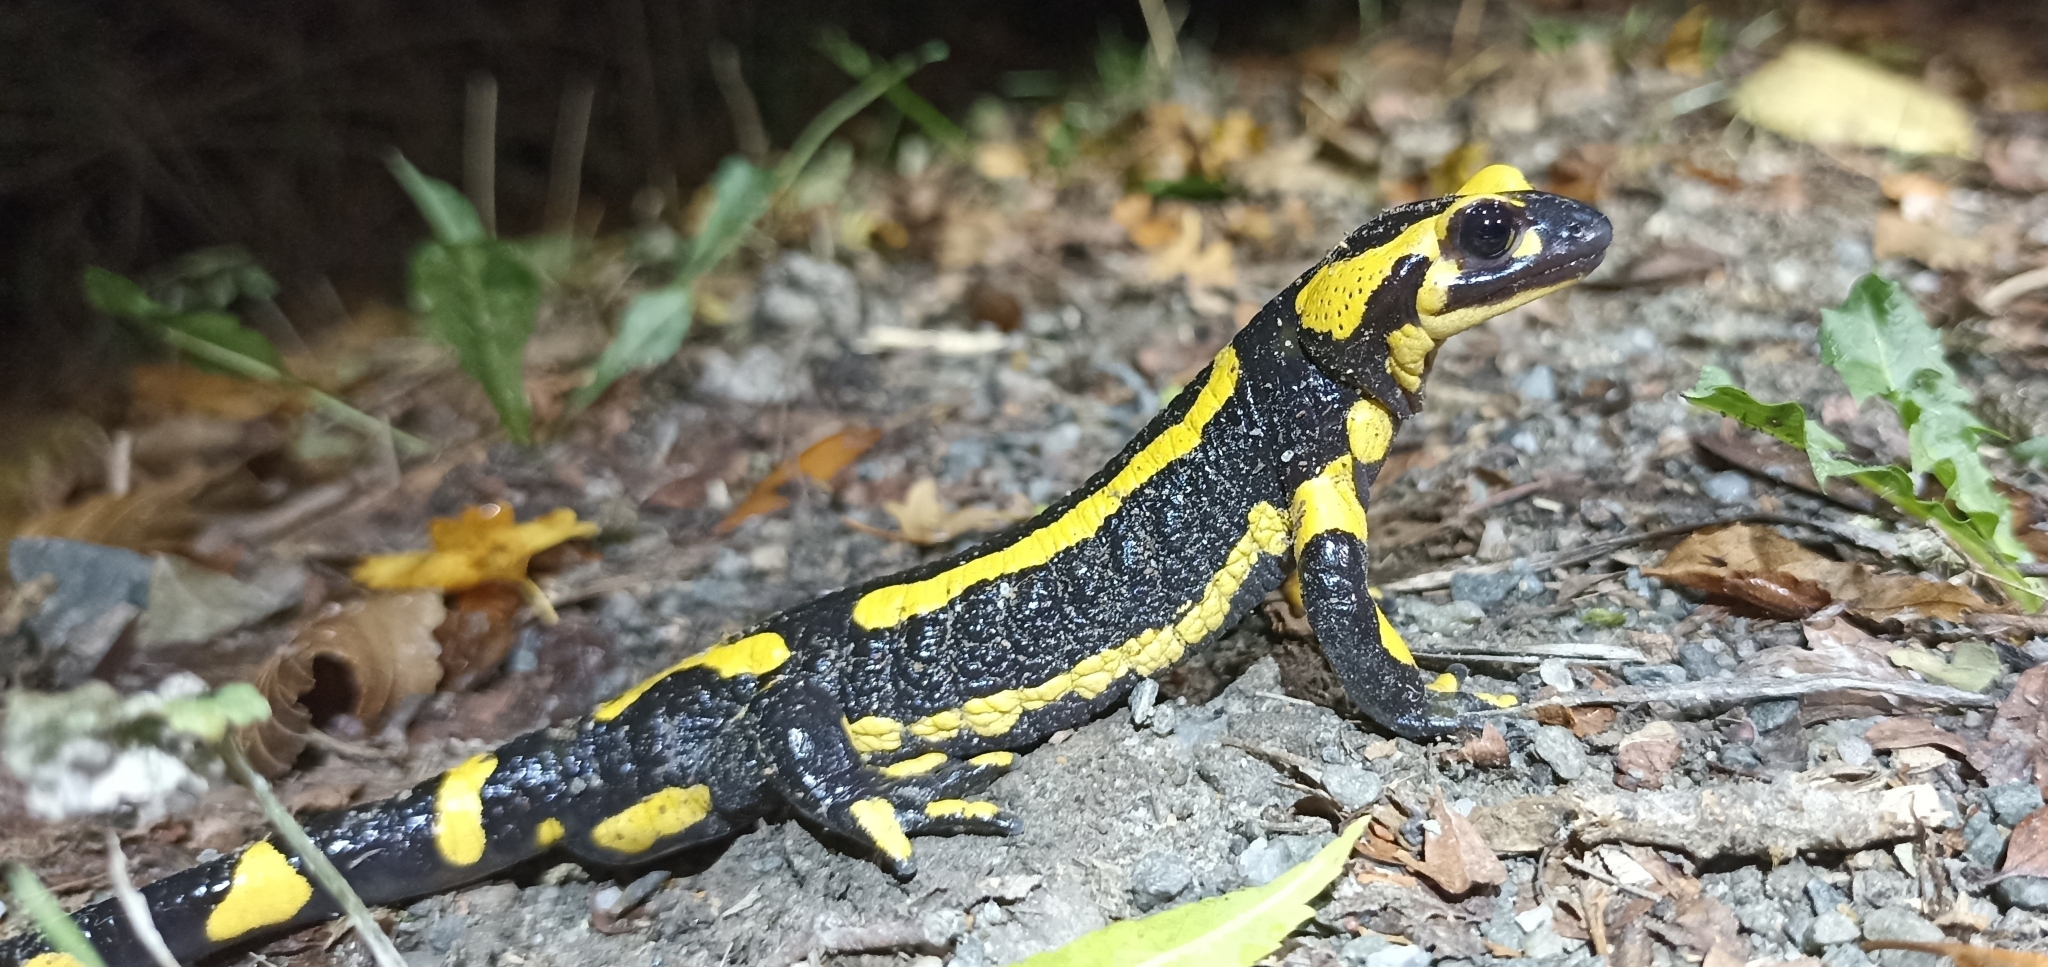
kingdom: Animalia
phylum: Chordata
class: Amphibia
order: Caudata
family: Salamandridae
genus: Salamandra
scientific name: Salamandra salamandra
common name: Fire salamander
